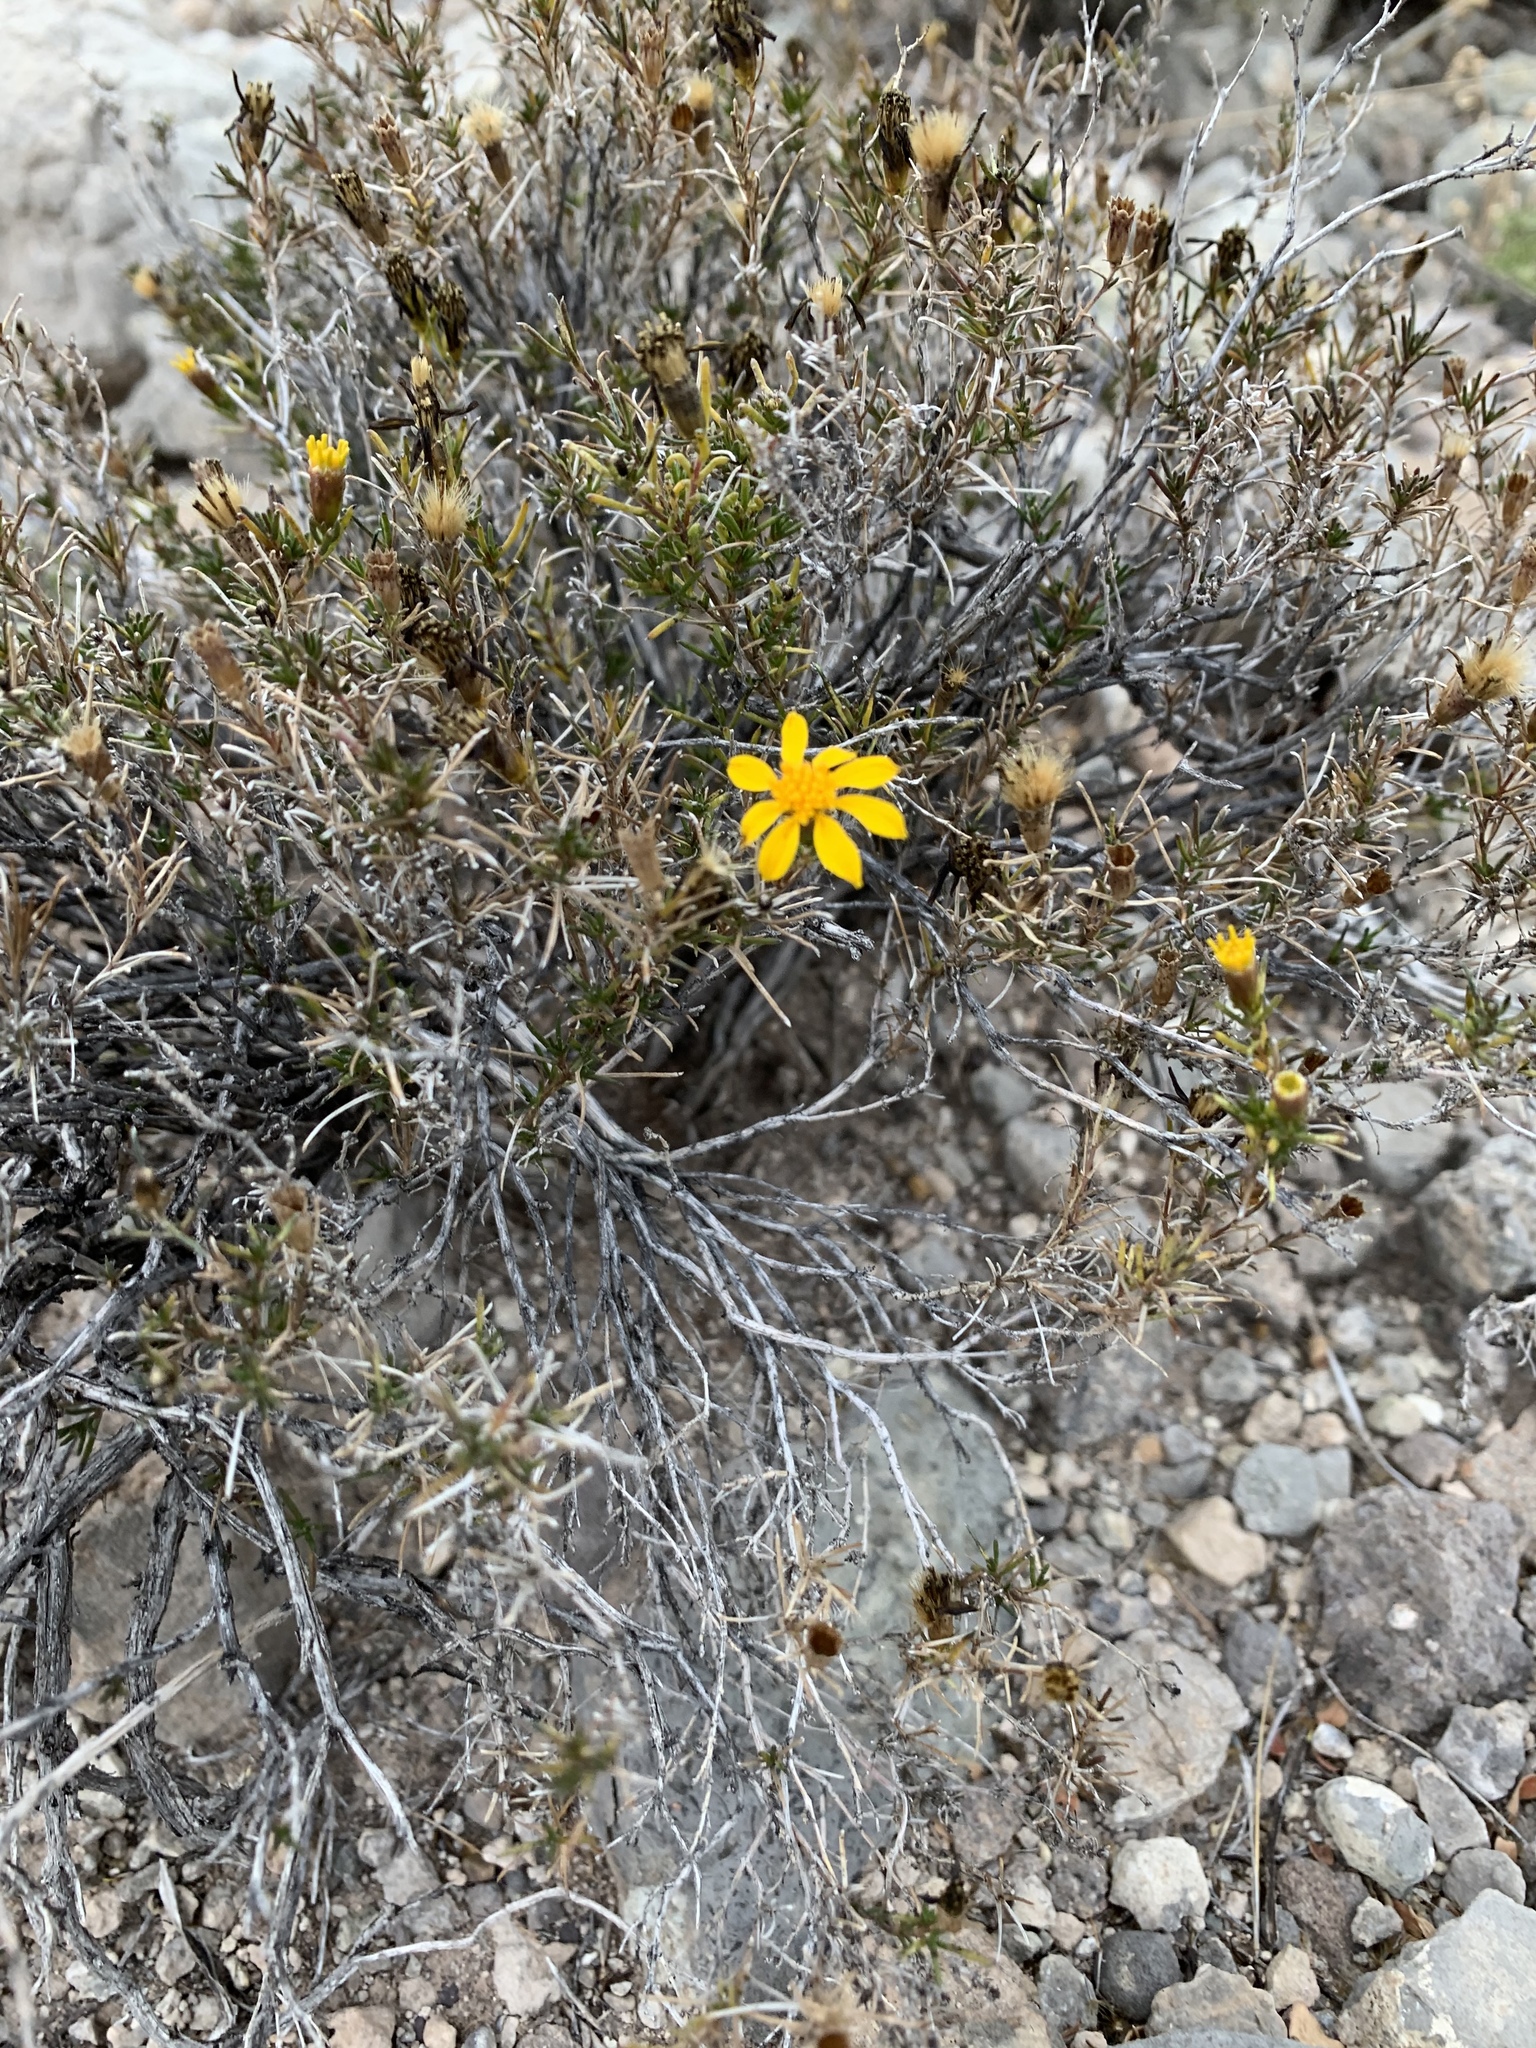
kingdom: Plantae
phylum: Tracheophyta
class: Magnoliopsida
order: Asterales
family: Asteraceae
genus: Thymophylla
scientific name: Thymophylla acerosa
